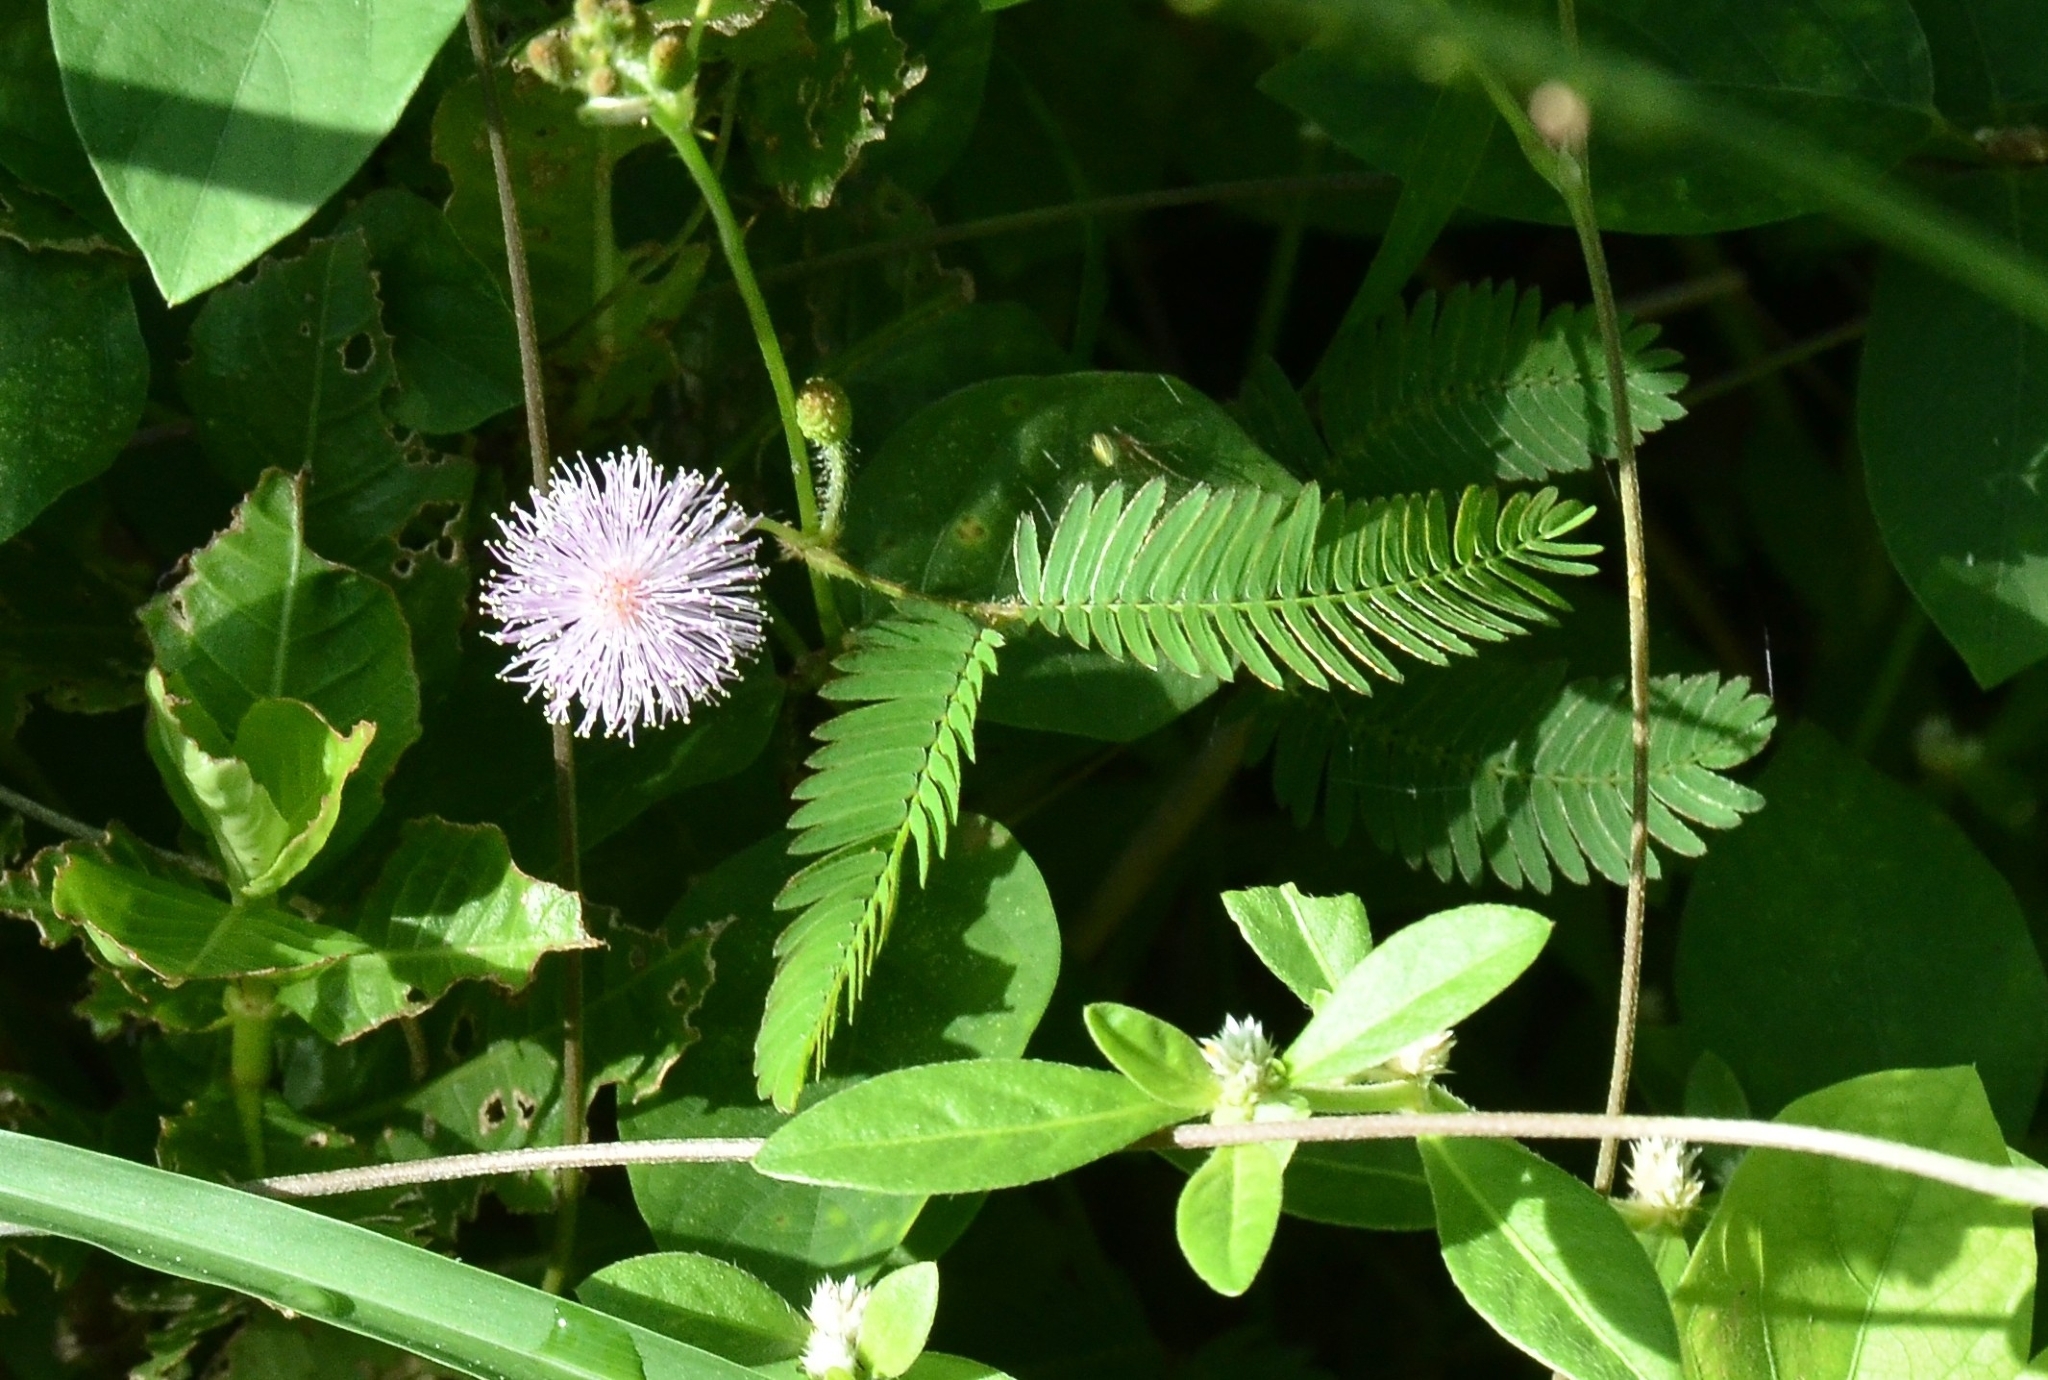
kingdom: Plantae
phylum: Tracheophyta
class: Magnoliopsida
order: Fabales
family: Fabaceae
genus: Mimosa
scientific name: Mimosa pudica
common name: Sensitive plant
